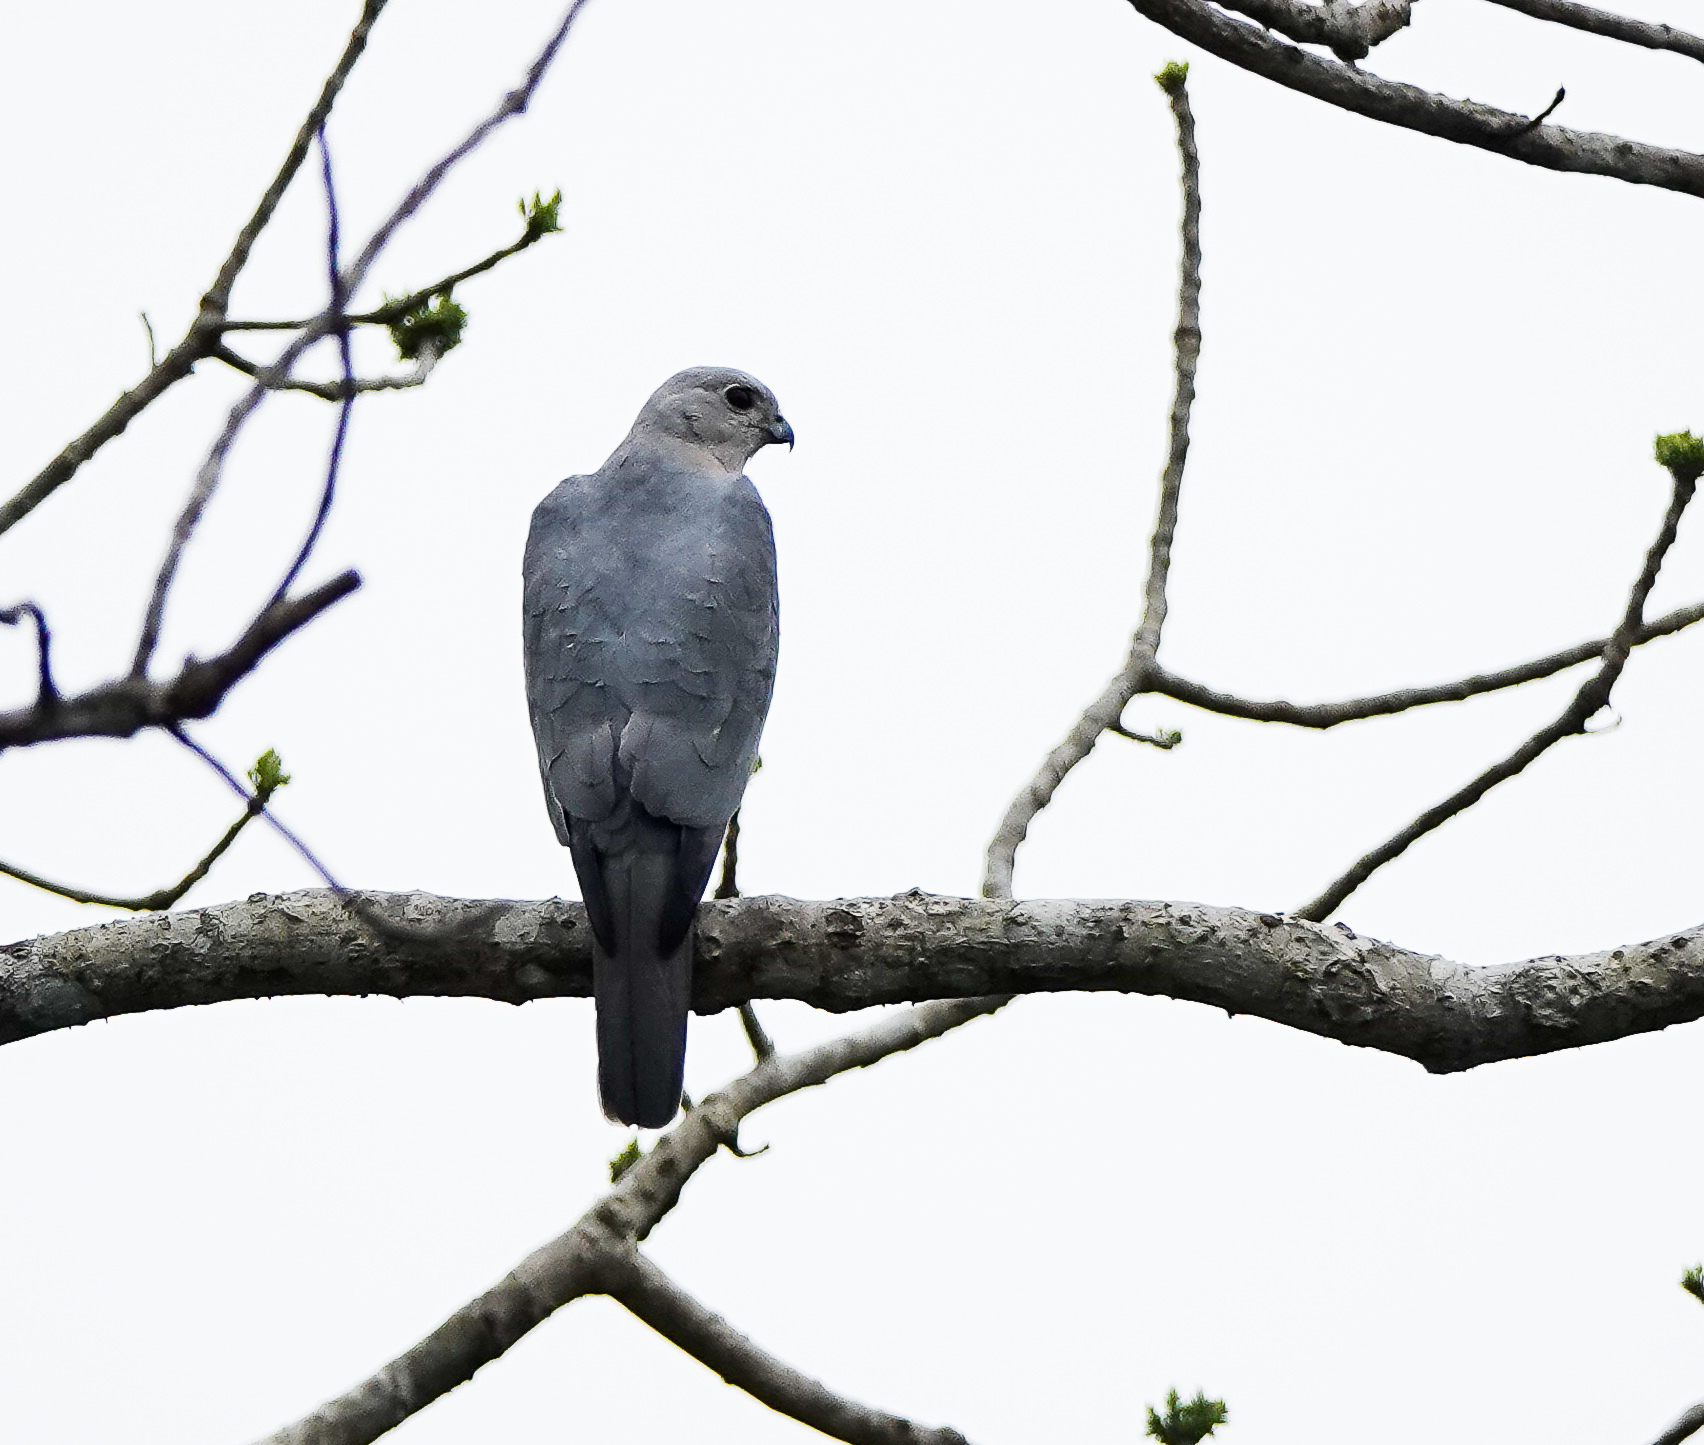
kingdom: Animalia
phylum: Chordata
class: Aves
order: Accipitriformes
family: Accipitridae
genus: Accipiter
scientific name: Accipiter badius
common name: Shikra
